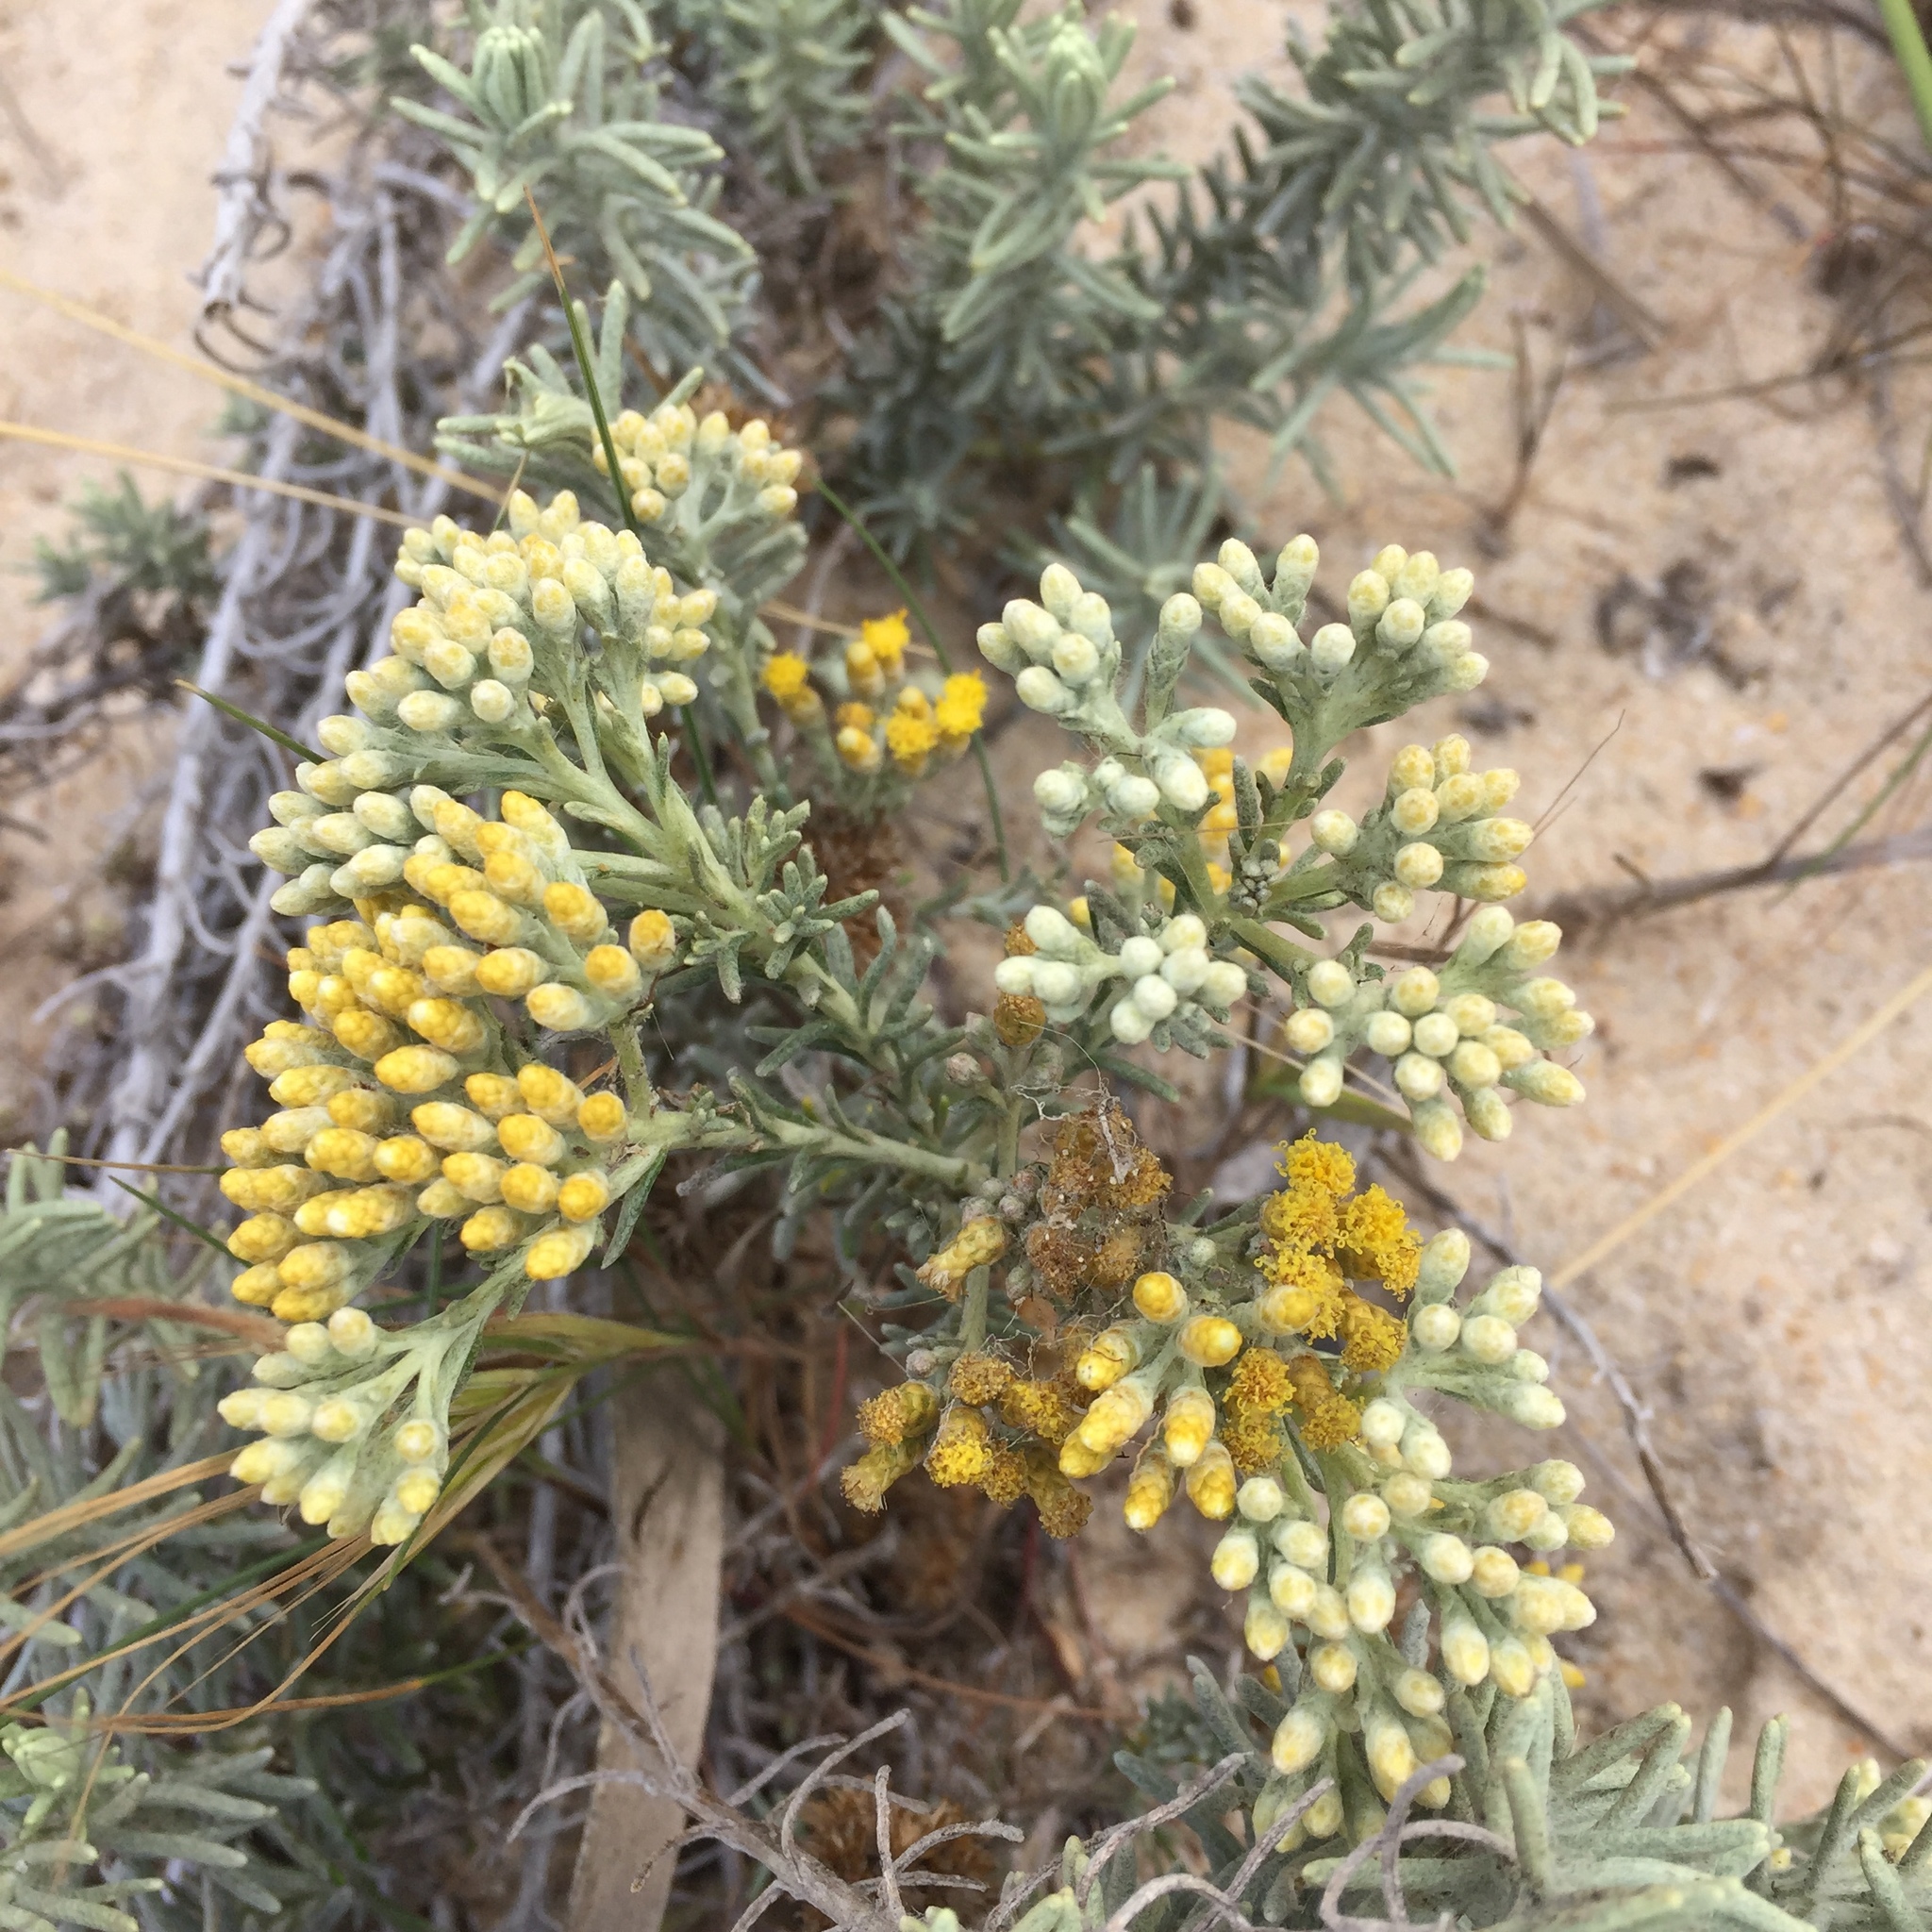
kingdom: Plantae
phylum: Tracheophyta
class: Magnoliopsida
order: Asterales
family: Asteraceae
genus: Helichrysum
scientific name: Helichrysum serotinum
